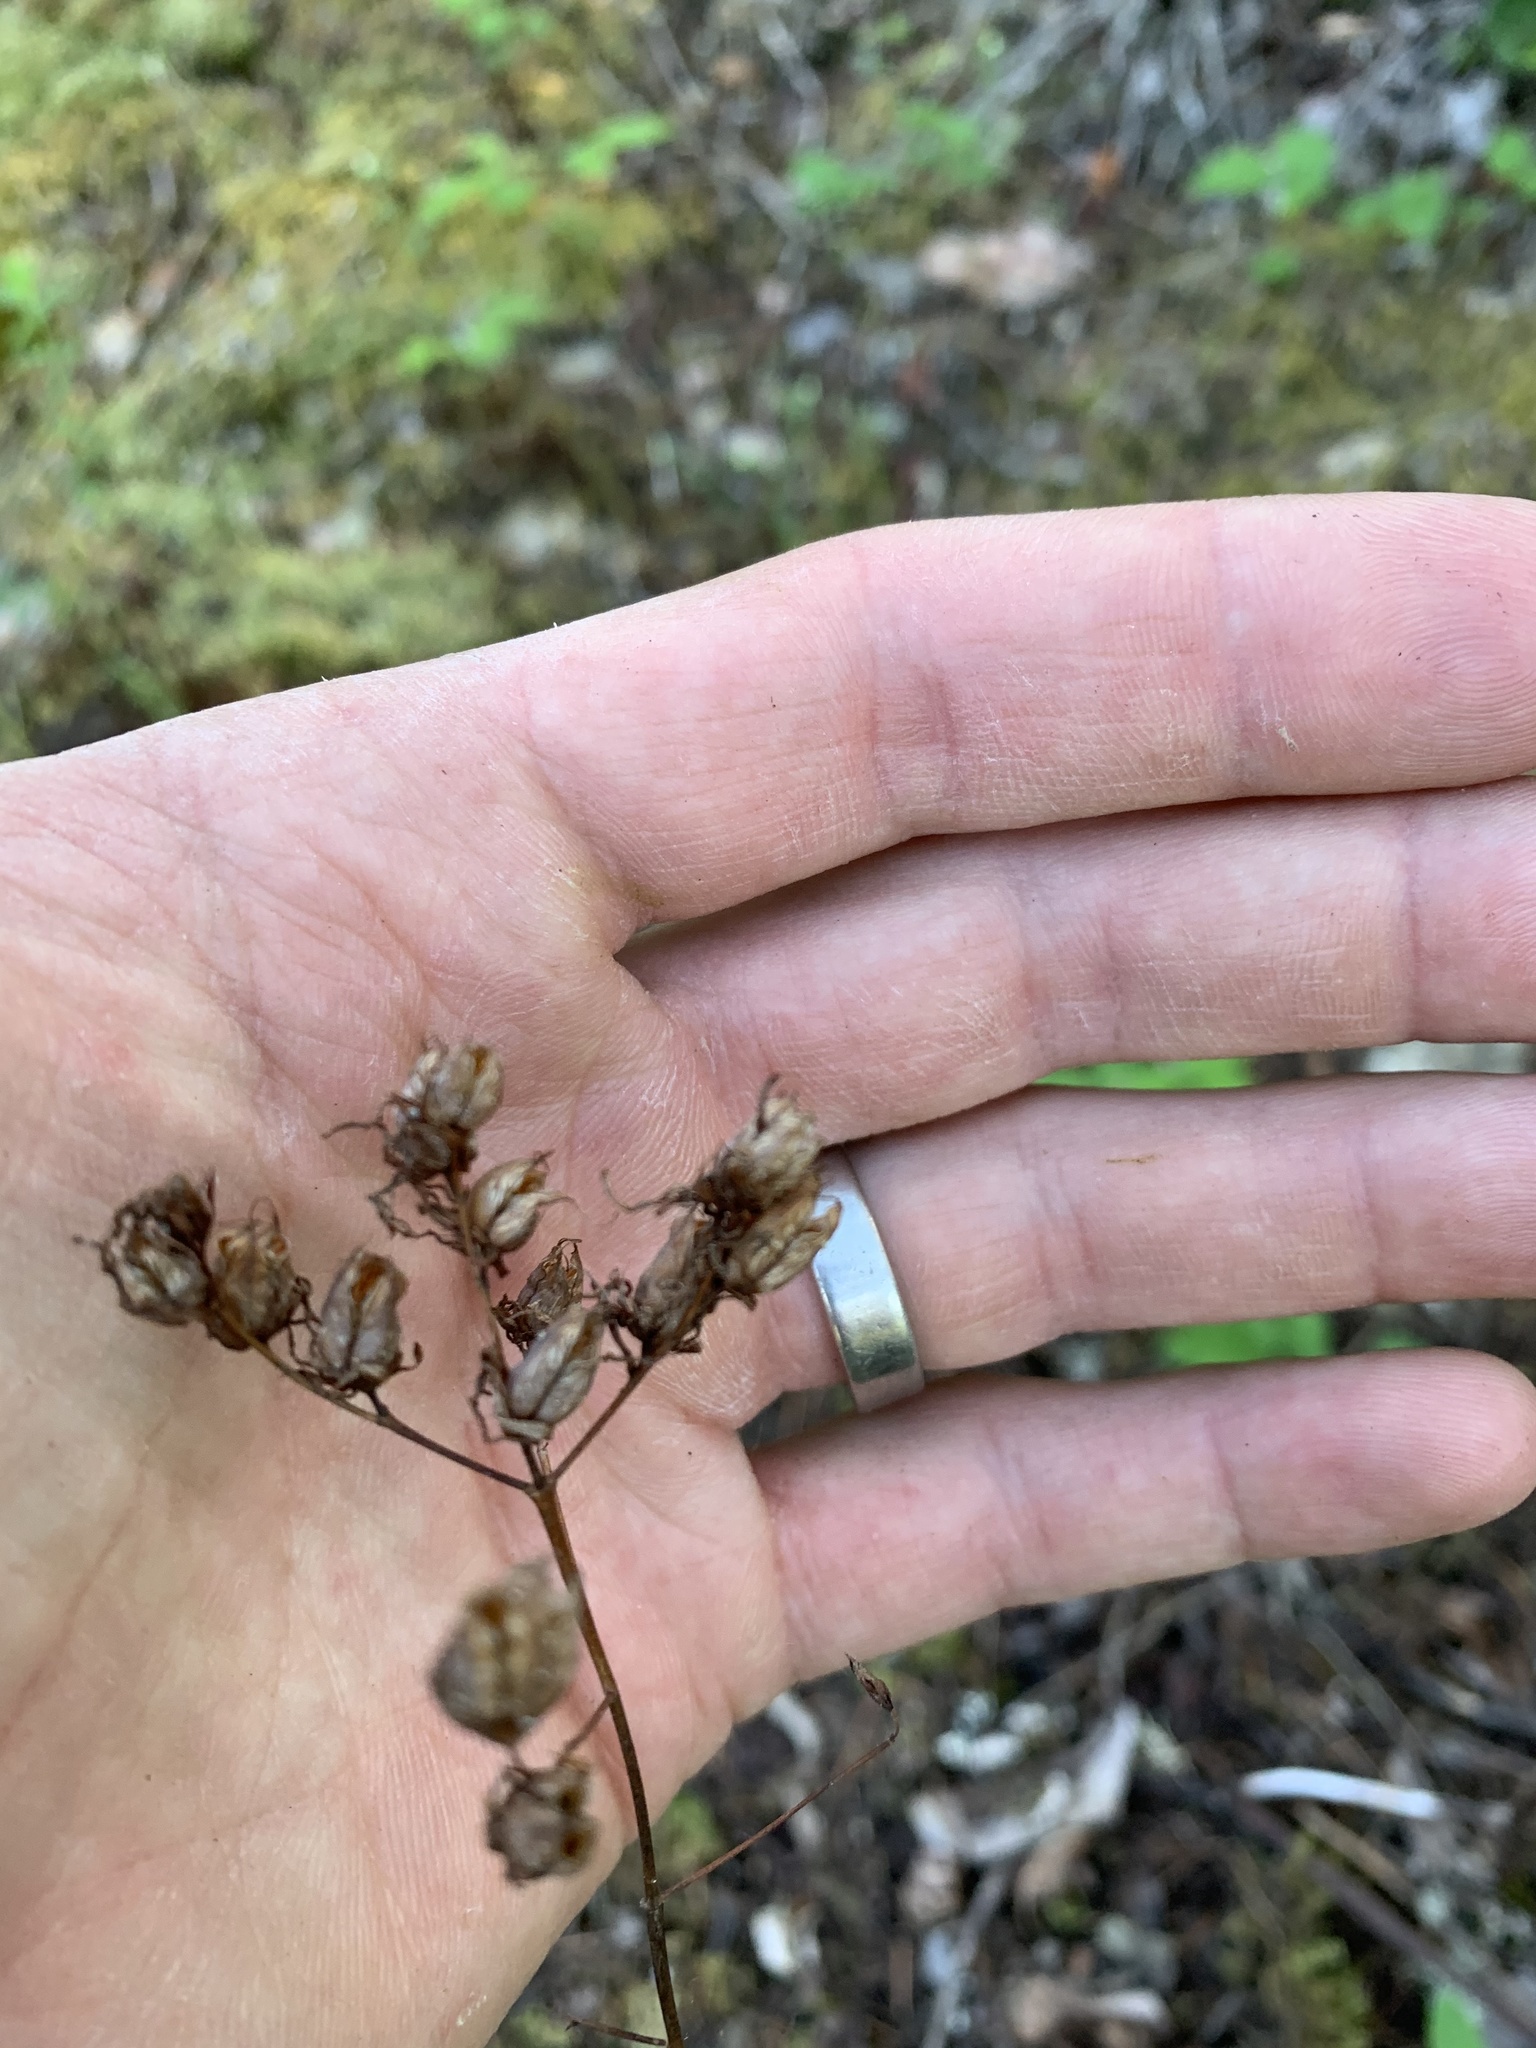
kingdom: Plantae
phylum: Tracheophyta
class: Magnoliopsida
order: Malpighiales
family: Hypericaceae
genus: Hypericum
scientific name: Hypericum perforatum
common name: Common st. johnswort
